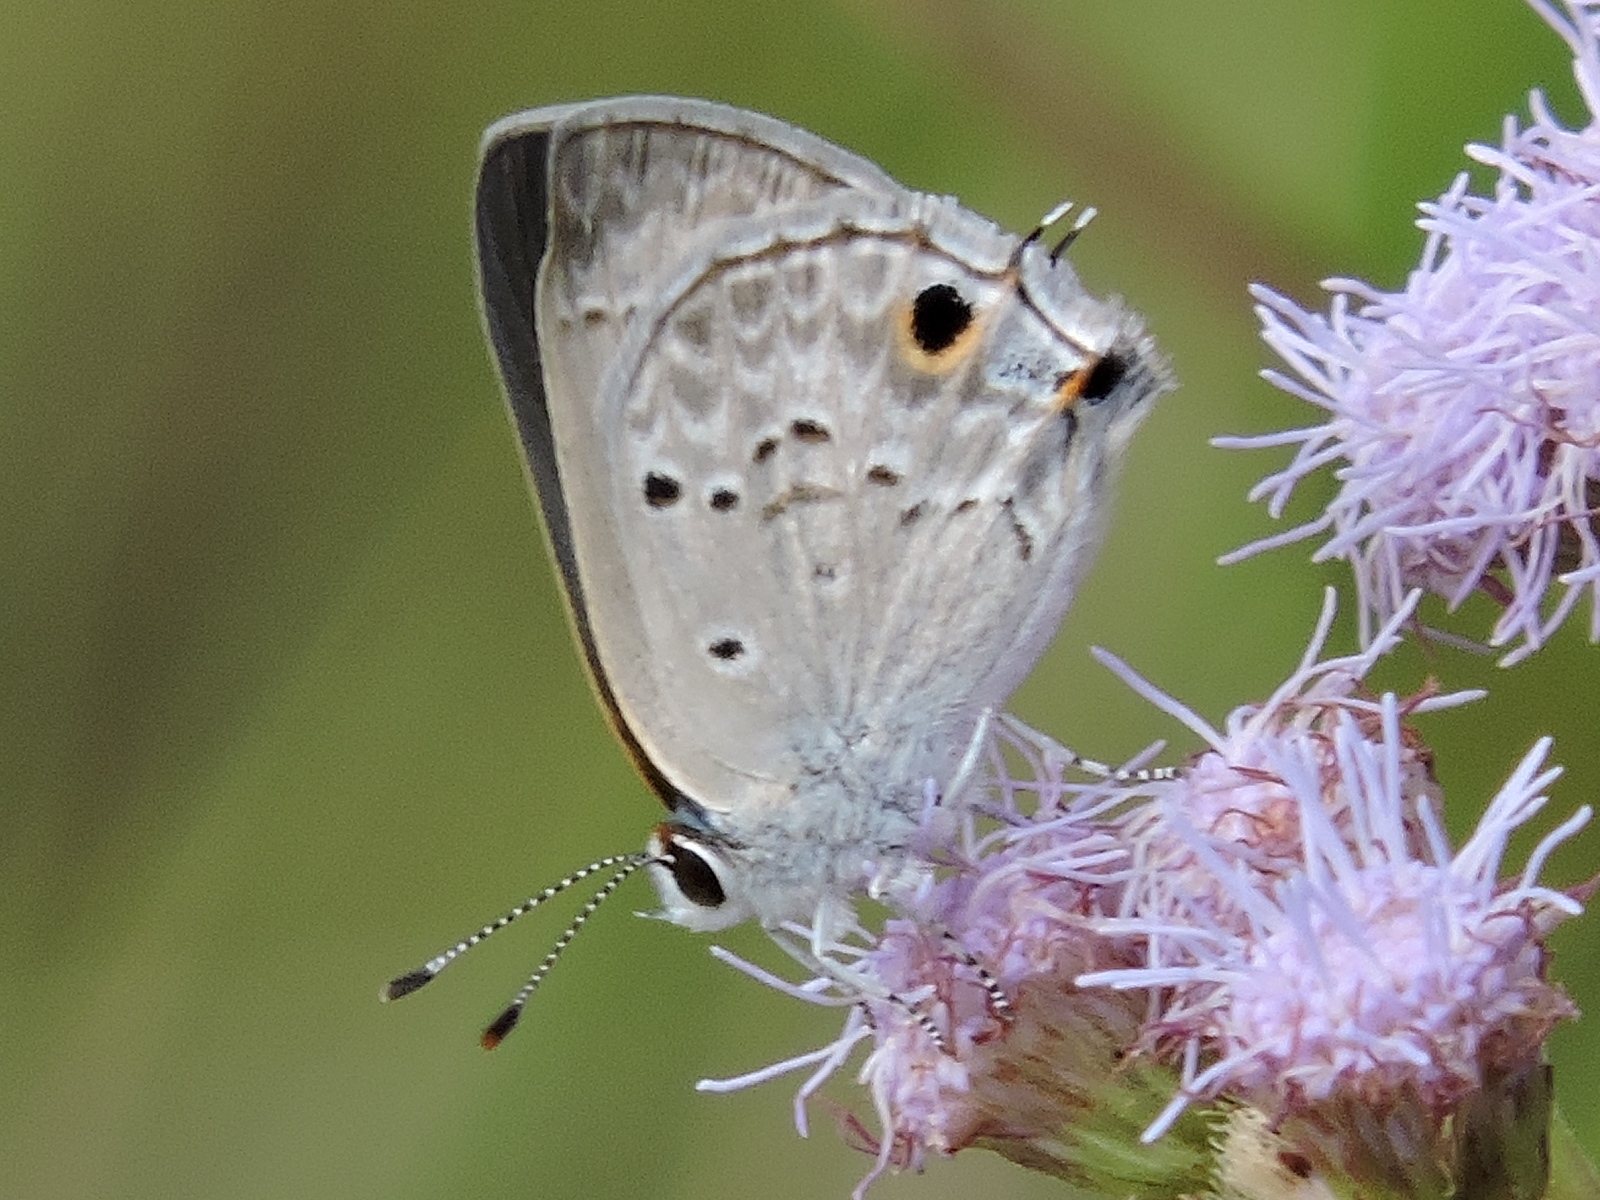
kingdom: Animalia
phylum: Arthropoda
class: Insecta
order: Lepidoptera
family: Lycaenidae
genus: Callicista
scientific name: Callicista columella
